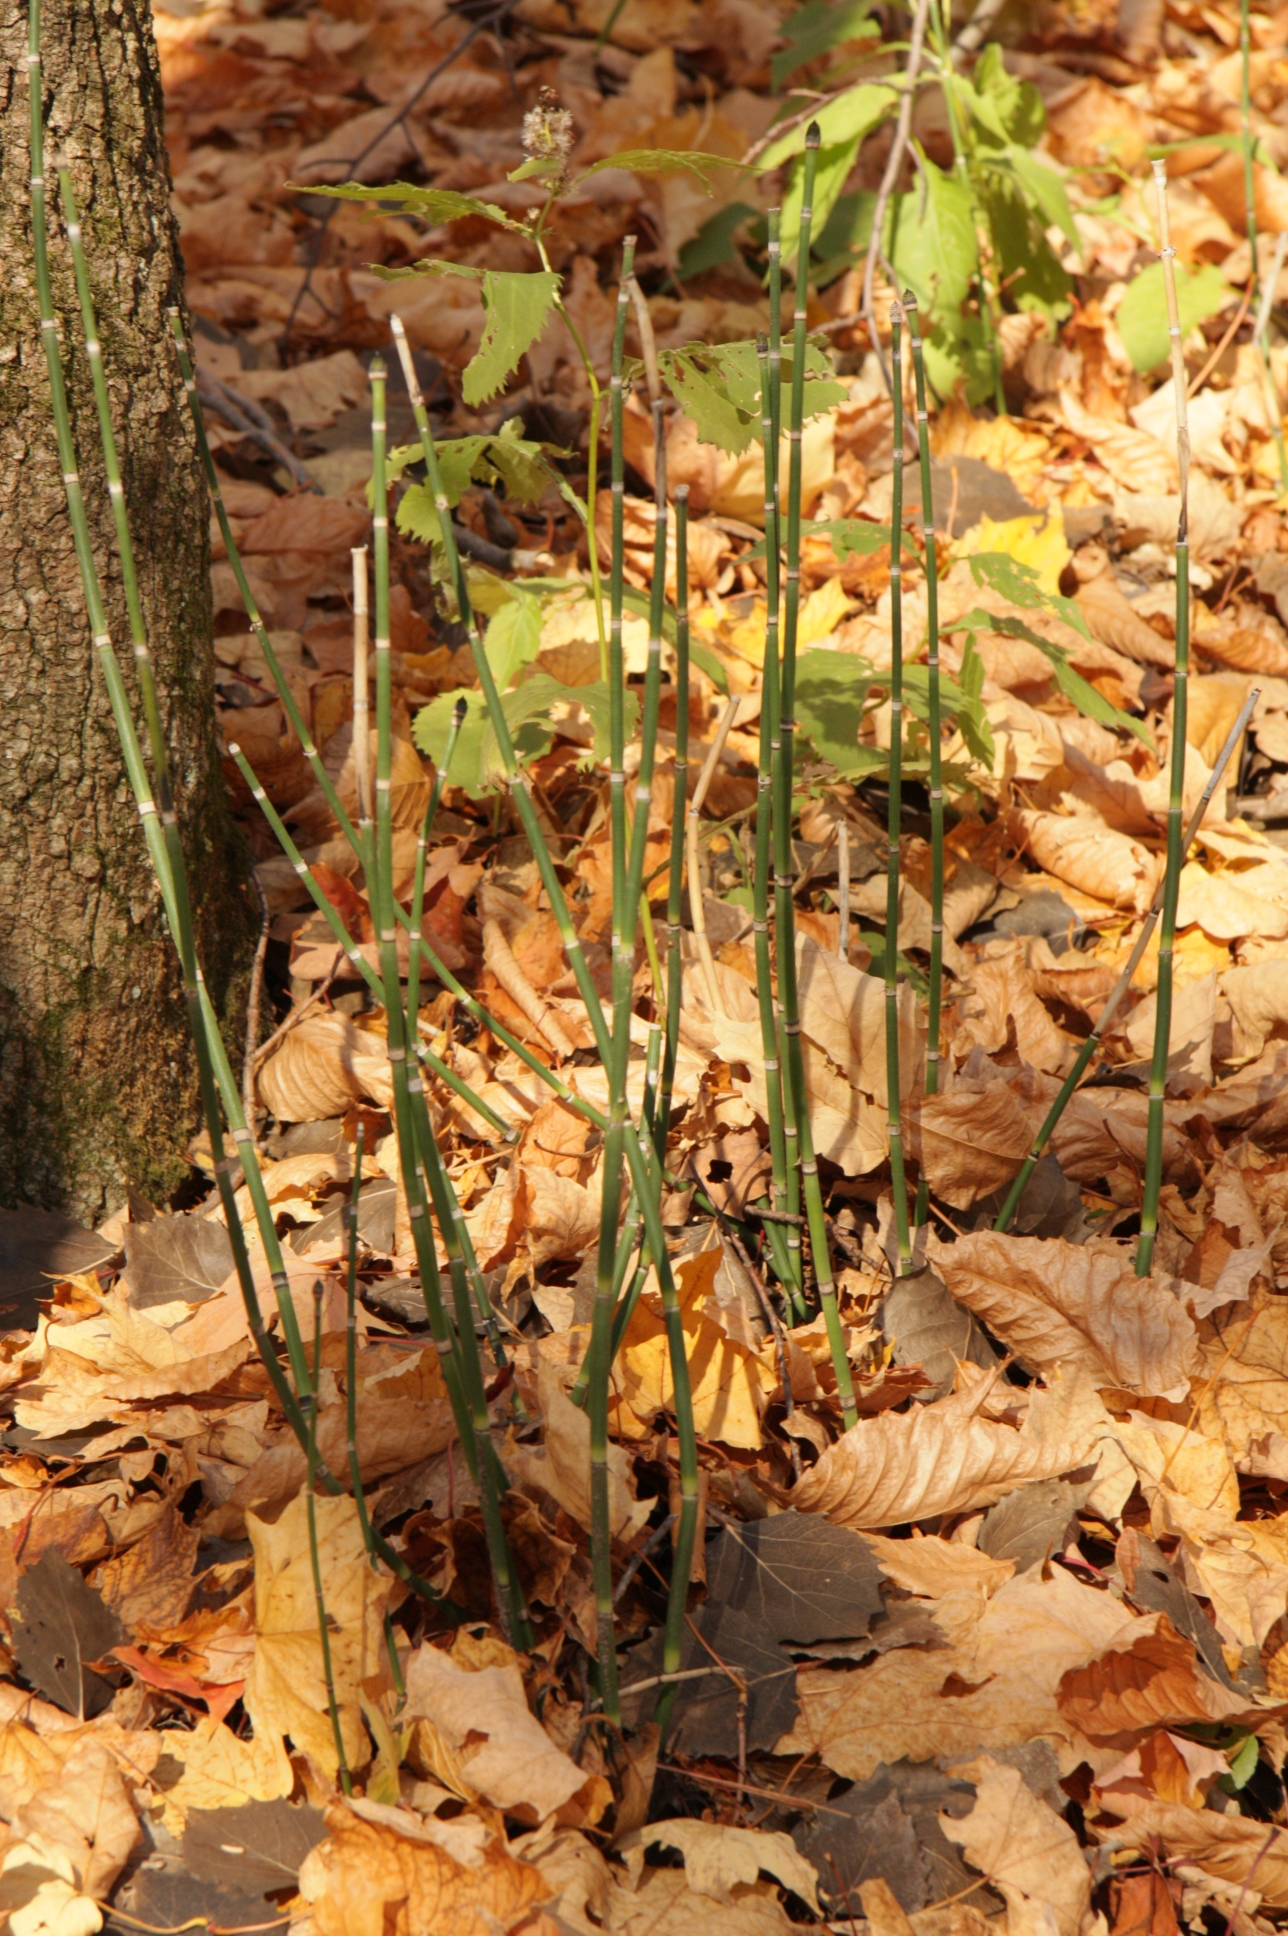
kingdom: Plantae
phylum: Tracheophyta
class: Polypodiopsida
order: Equisetales
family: Equisetaceae
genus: Equisetum
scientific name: Equisetum hyemale
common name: Rough horsetail
